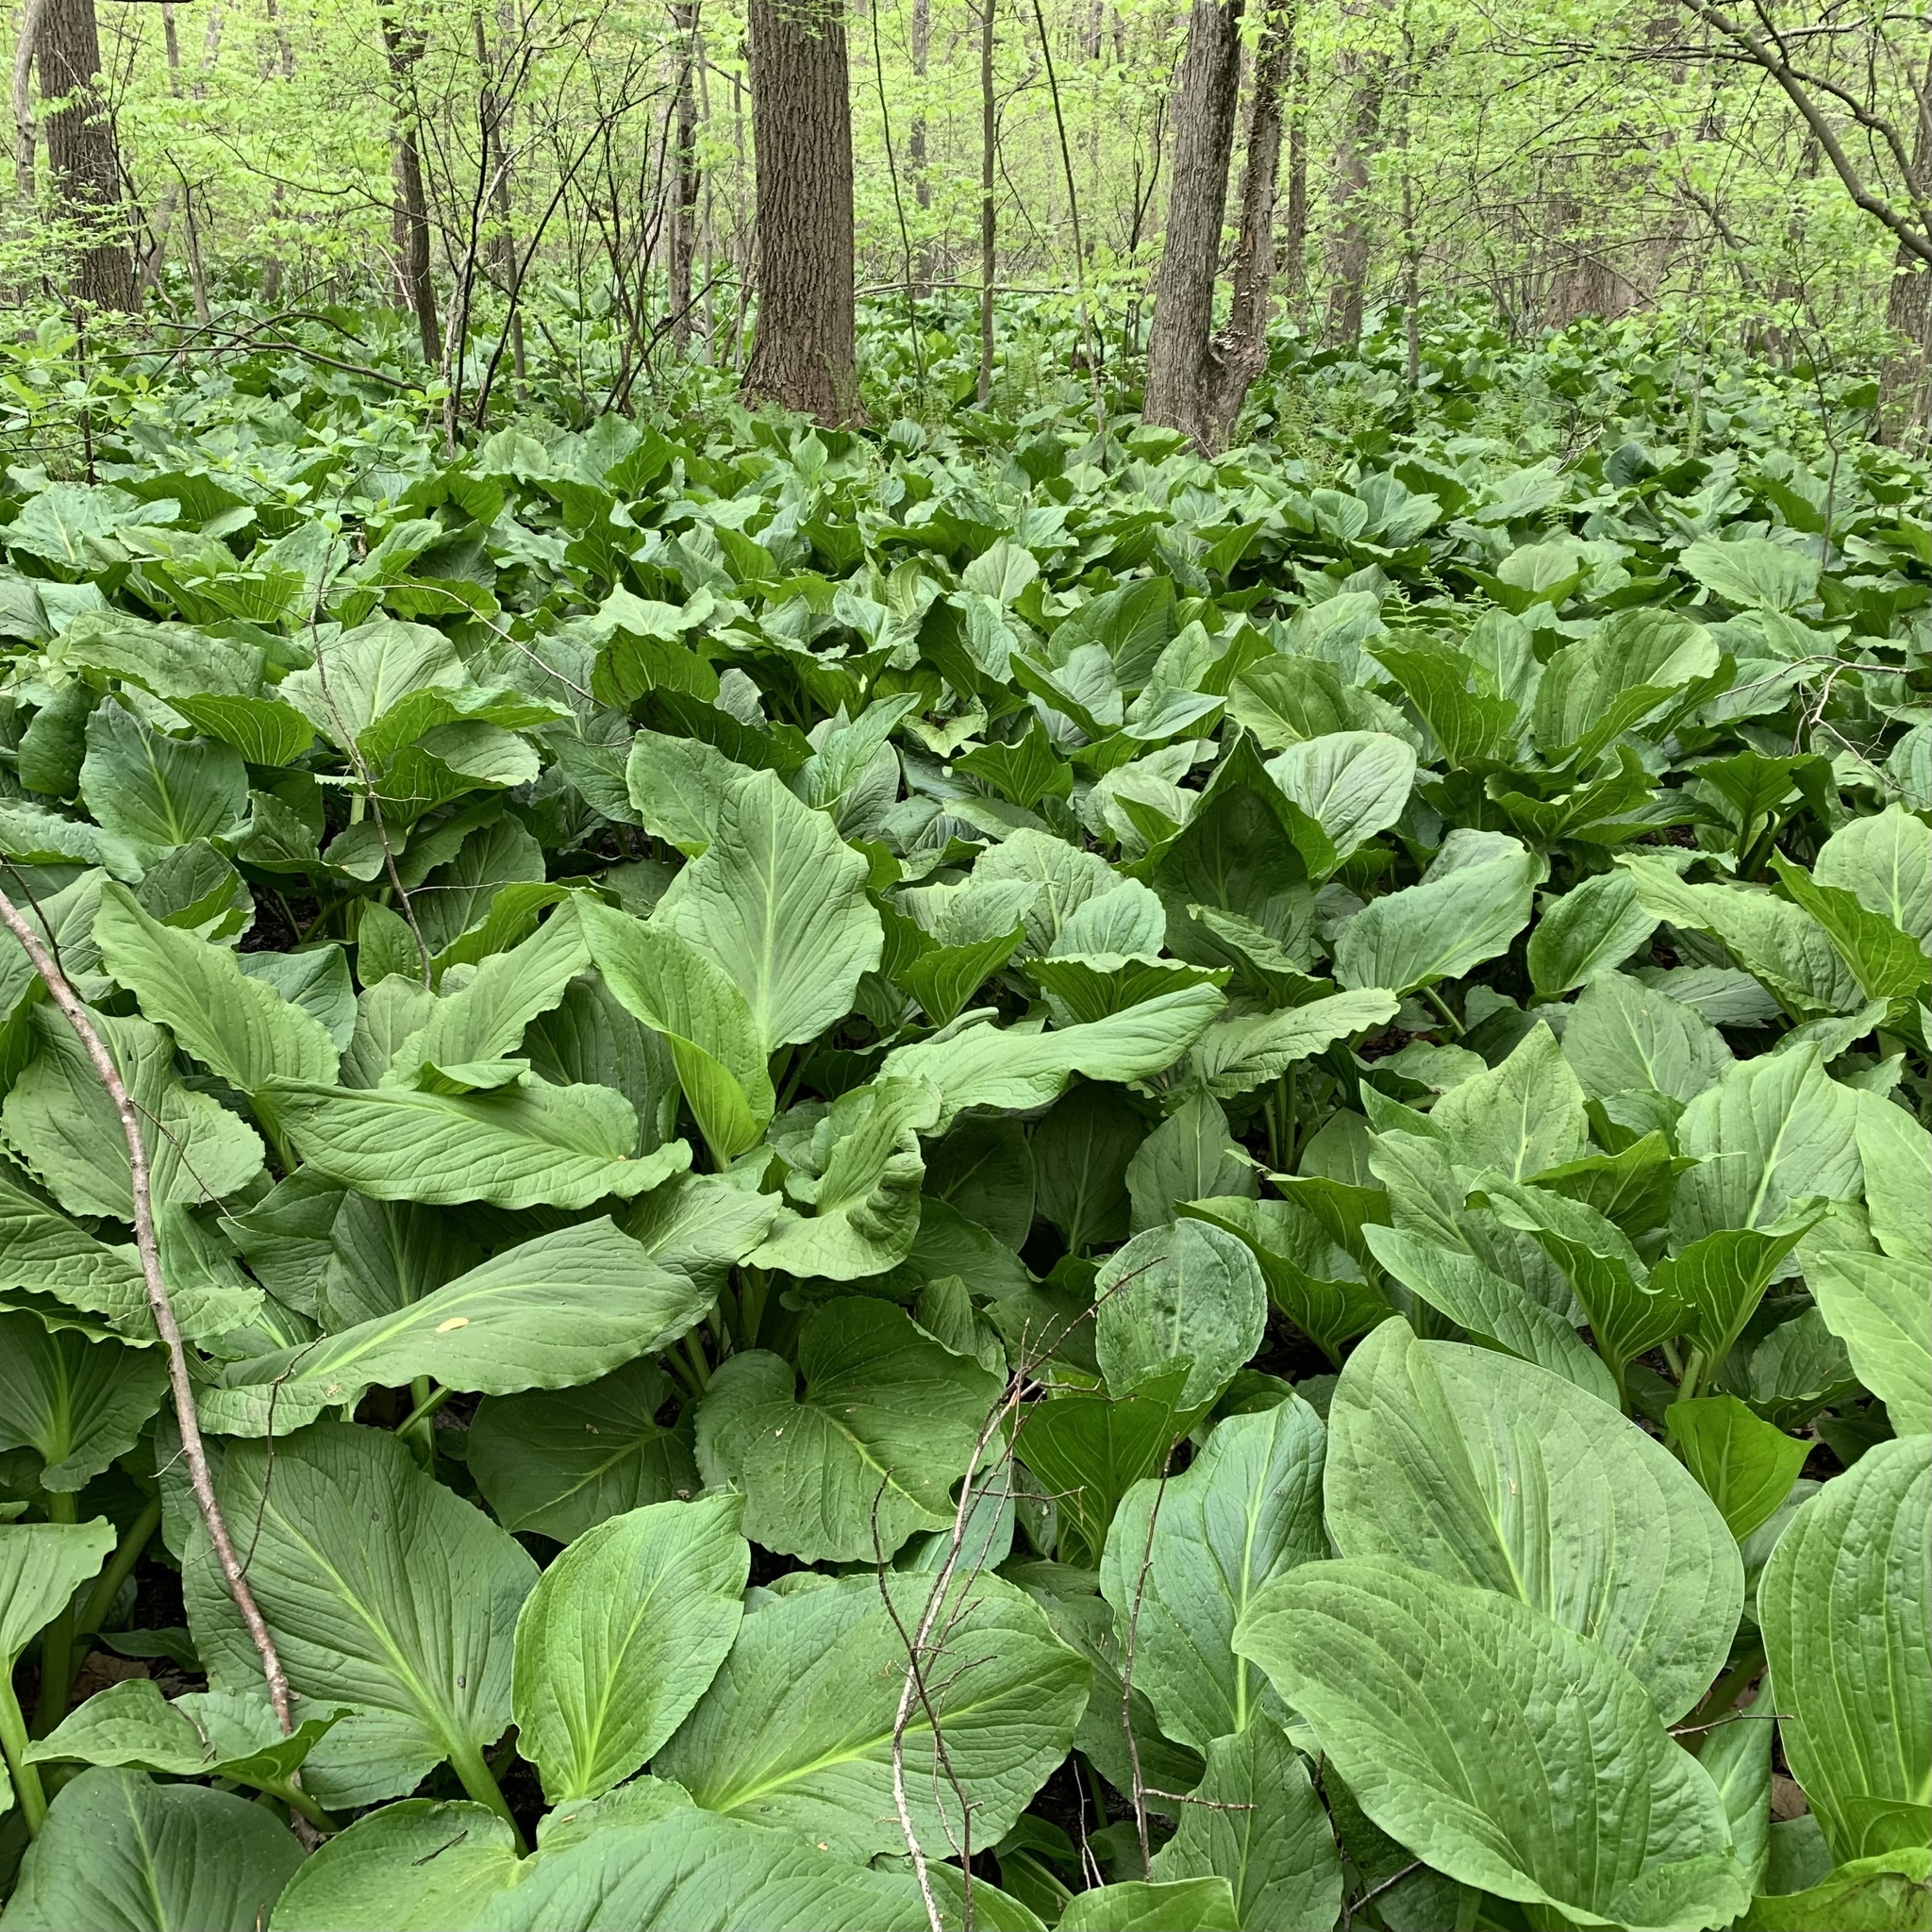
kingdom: Plantae
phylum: Tracheophyta
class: Liliopsida
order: Alismatales
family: Araceae
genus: Symplocarpus
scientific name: Symplocarpus foetidus
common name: Eastern skunk cabbage
